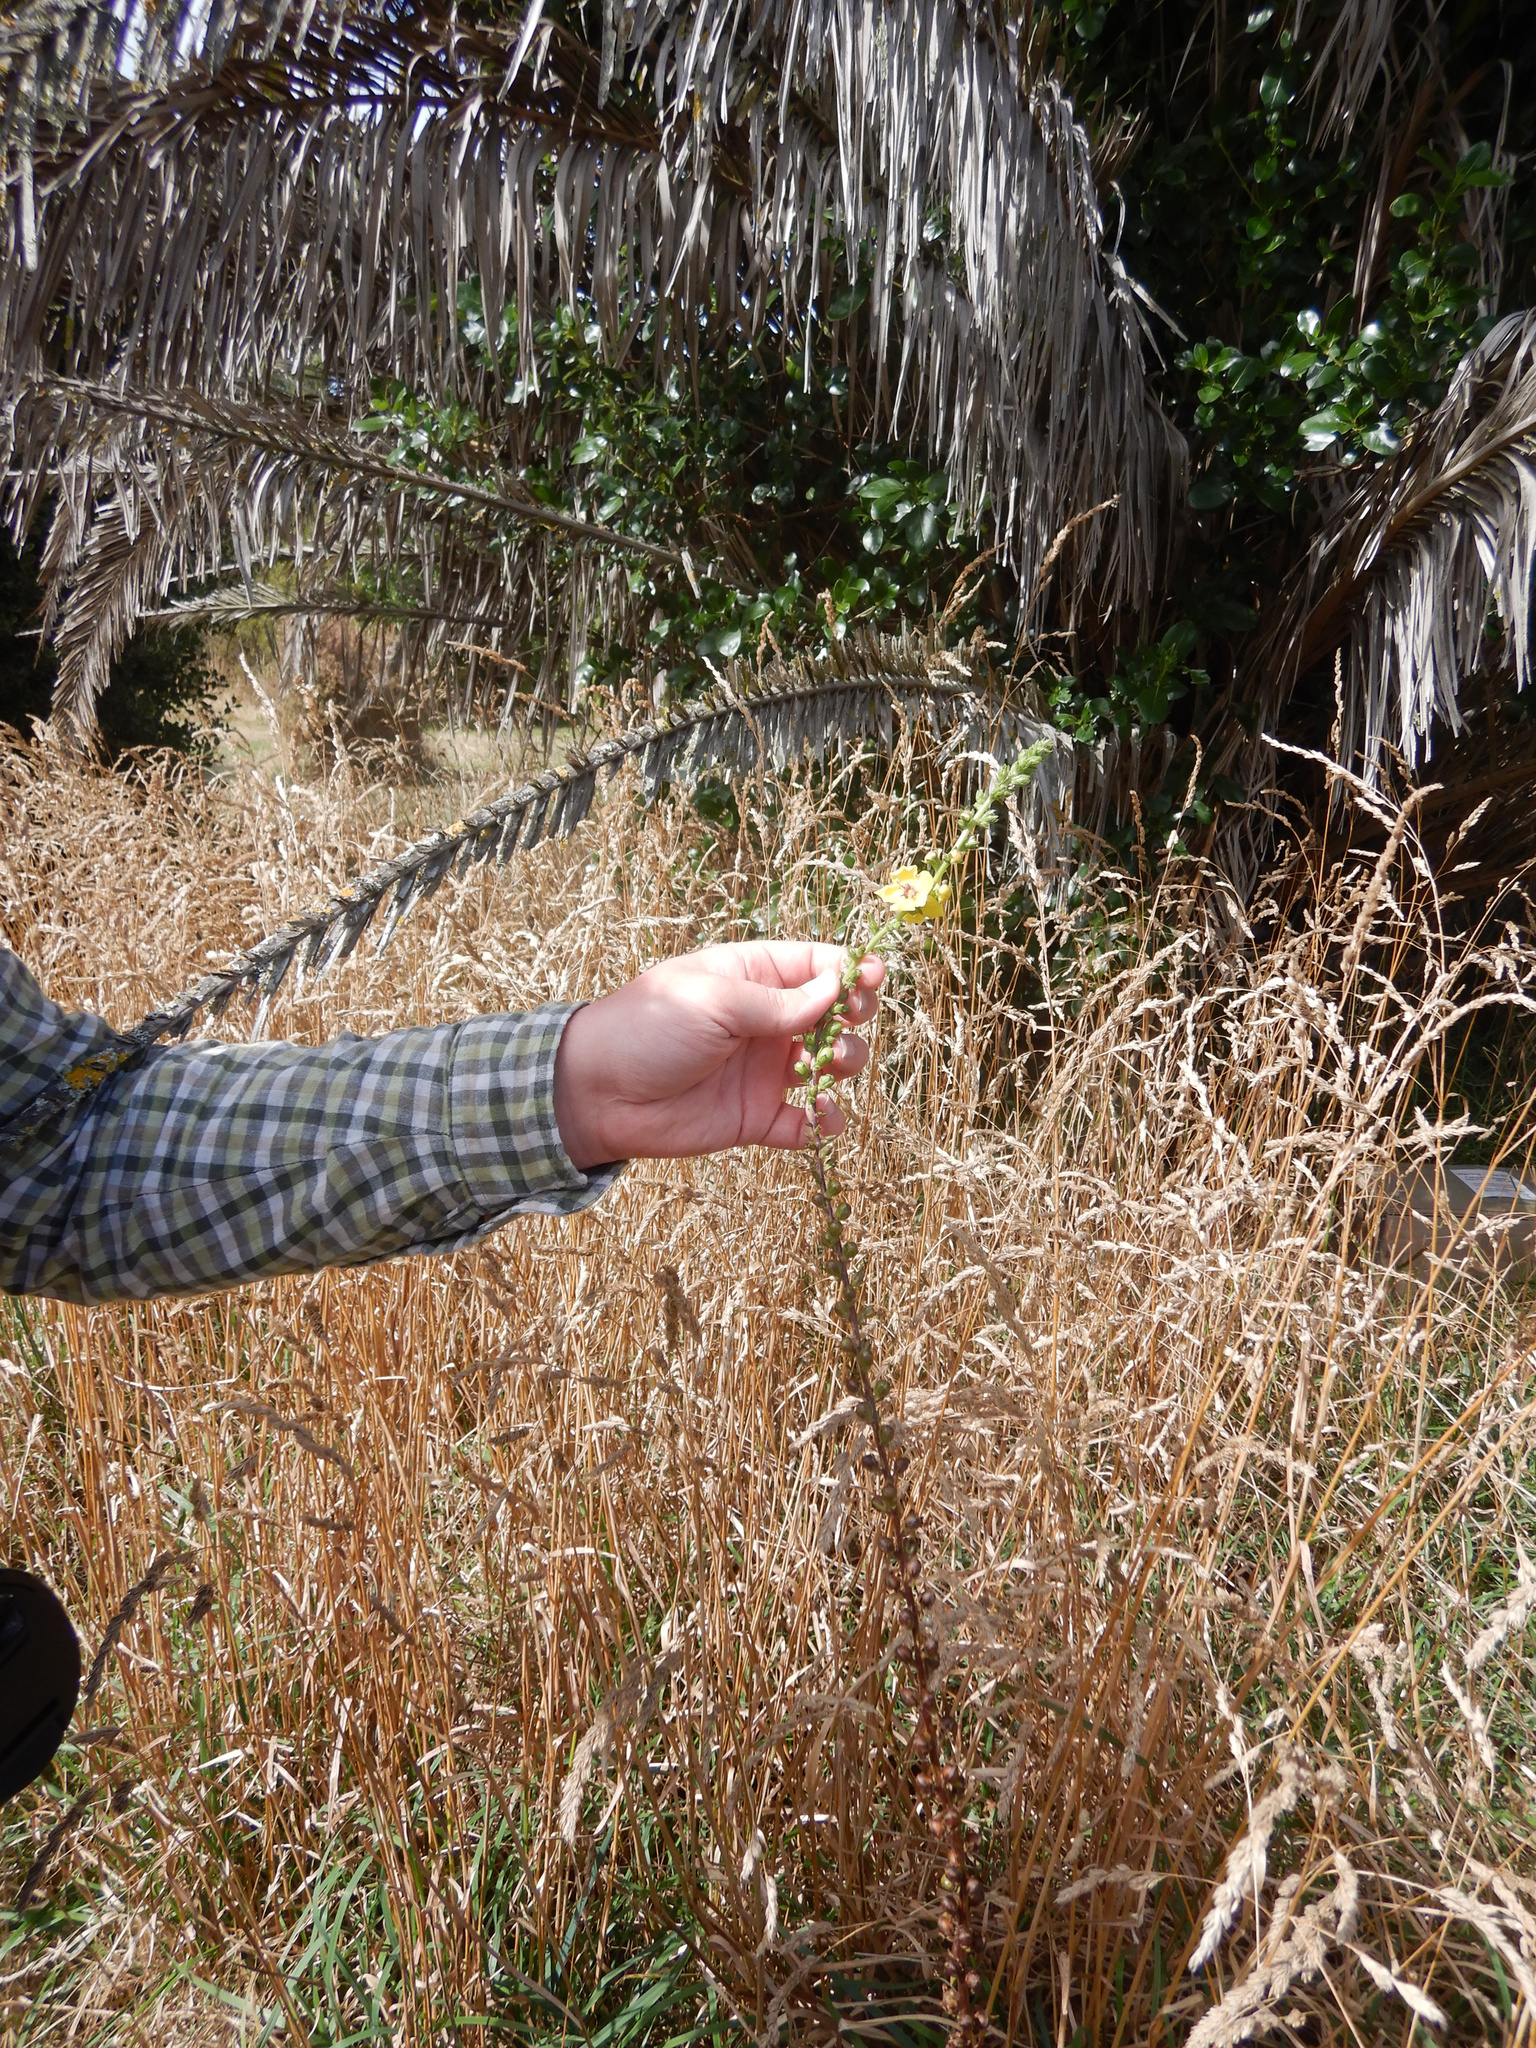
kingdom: Plantae
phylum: Tracheophyta
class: Magnoliopsida
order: Lamiales
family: Scrophulariaceae
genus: Verbascum
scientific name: Verbascum virgatum
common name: Twiggy mullein
